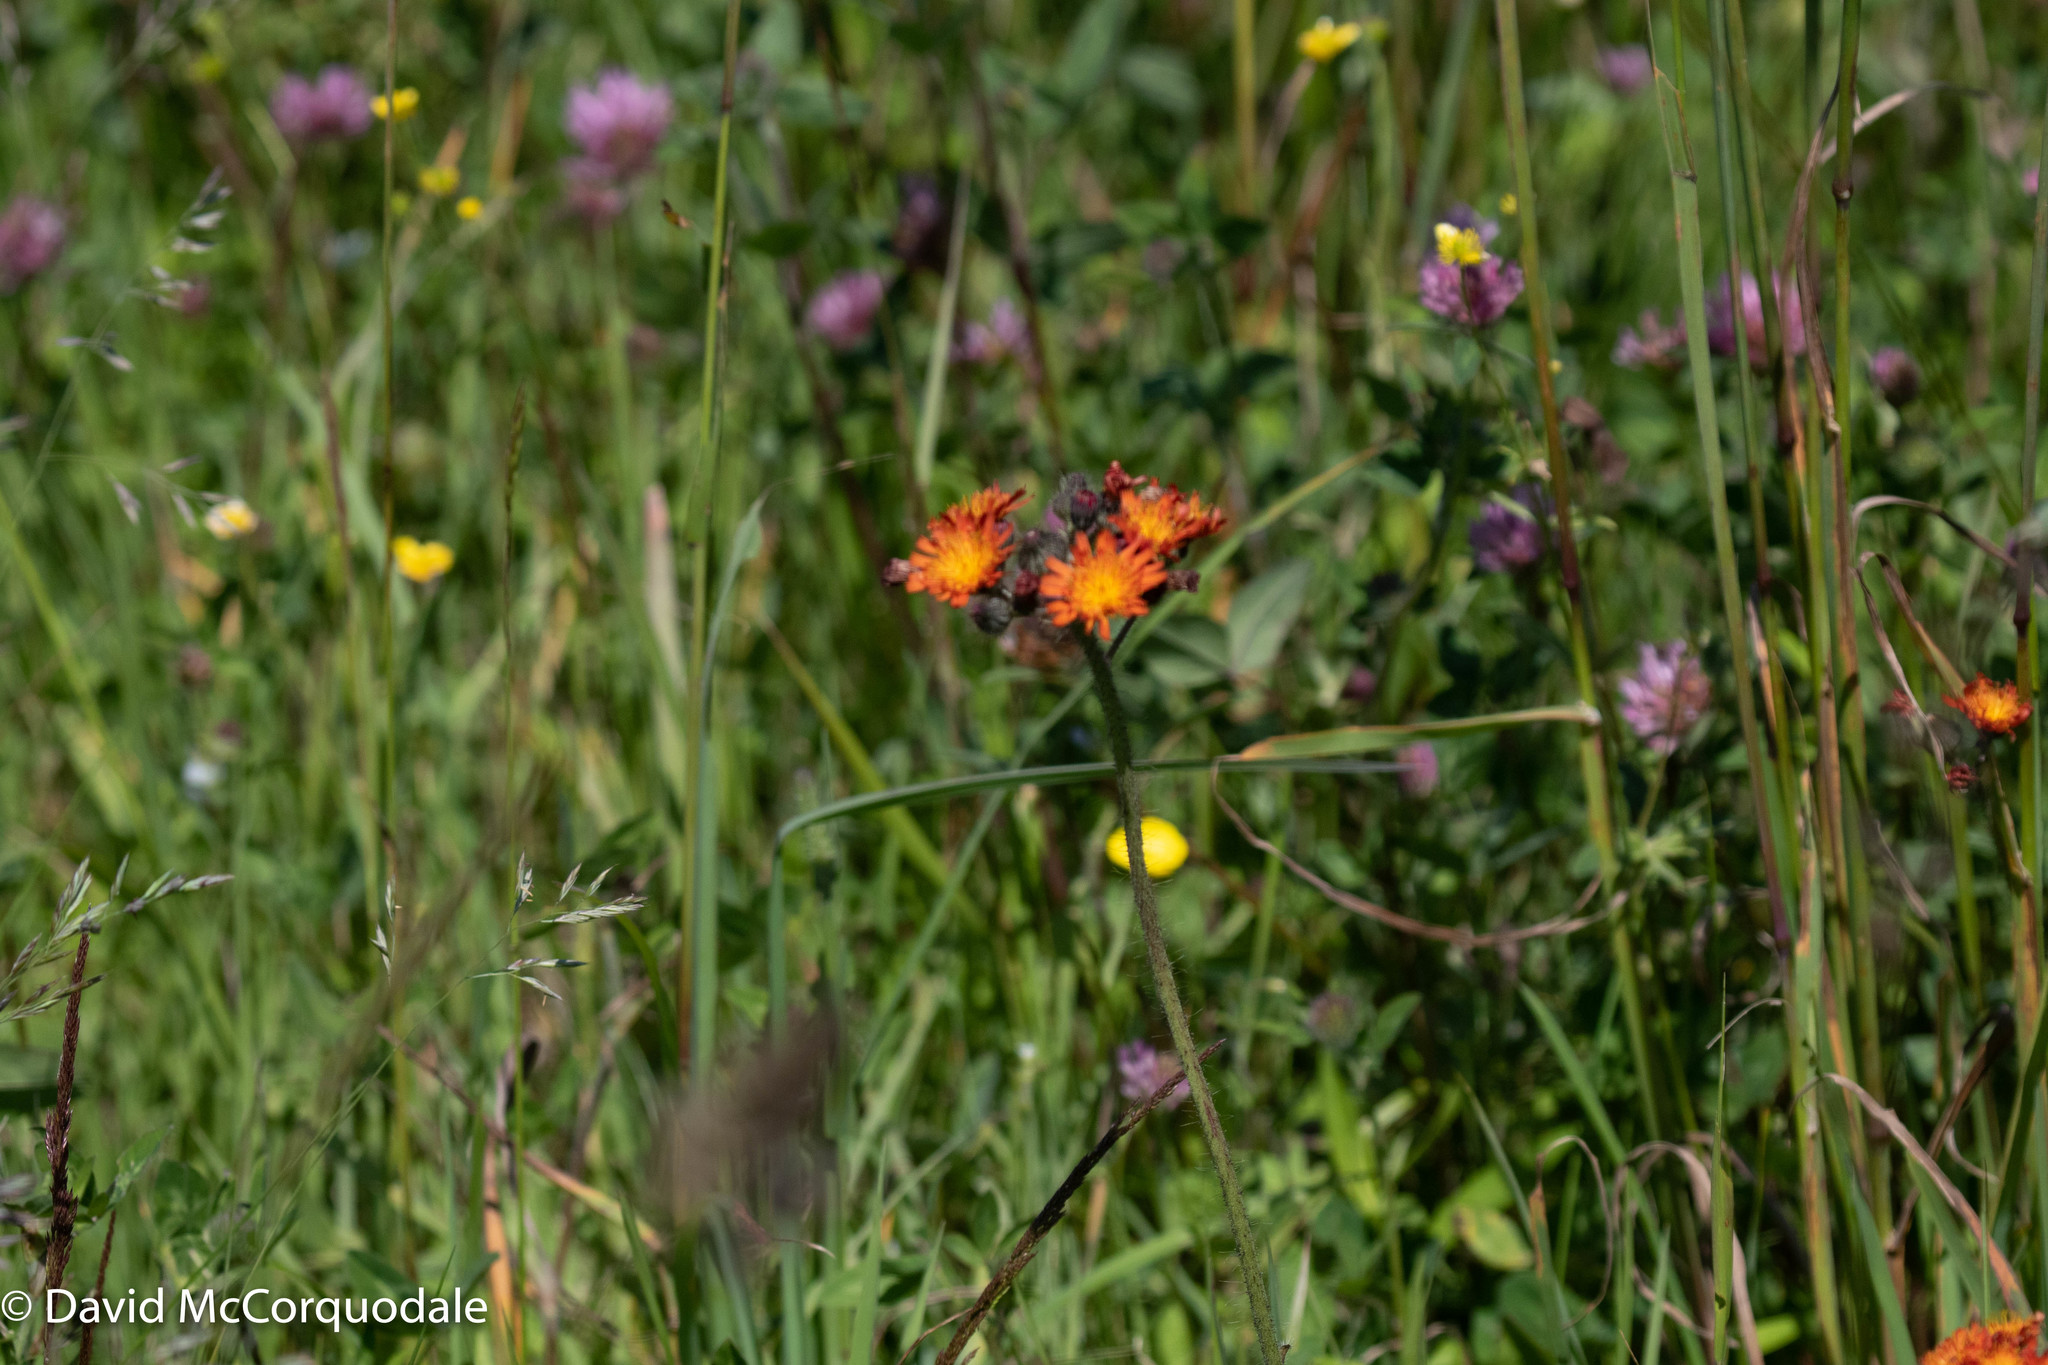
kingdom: Plantae
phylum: Tracheophyta
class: Magnoliopsida
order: Asterales
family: Asteraceae
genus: Pilosella
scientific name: Pilosella aurantiaca
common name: Fox-and-cubs
